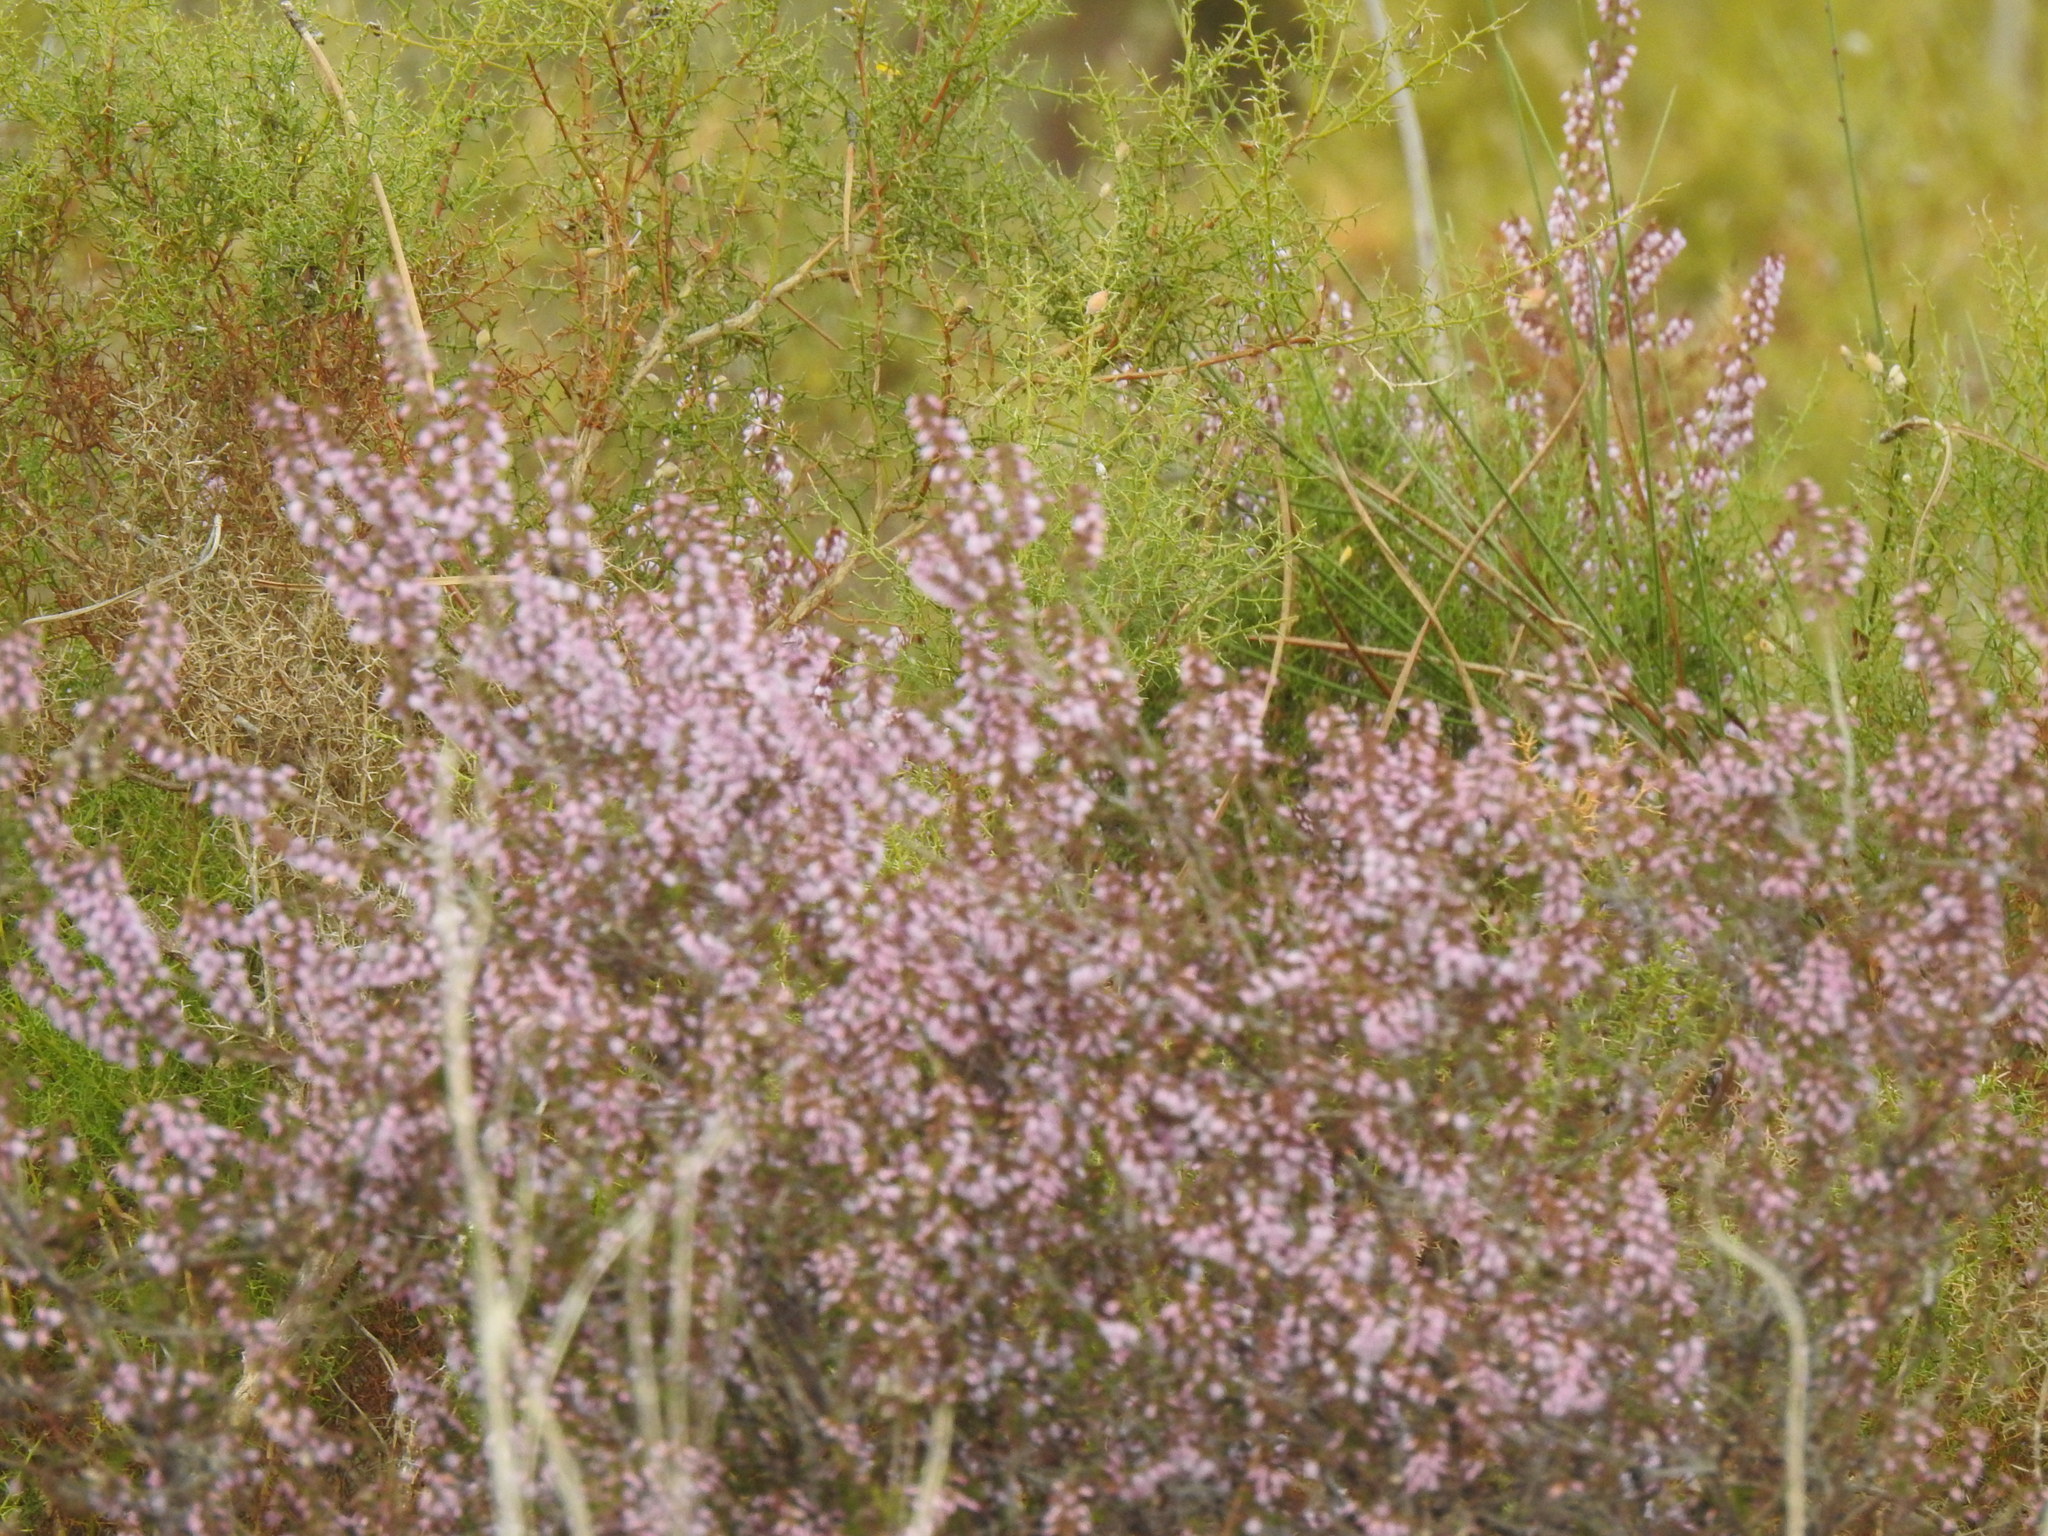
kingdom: Plantae
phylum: Tracheophyta
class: Magnoliopsida
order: Ericales
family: Ericaceae
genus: Calluna
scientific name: Calluna vulgaris
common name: Heather
